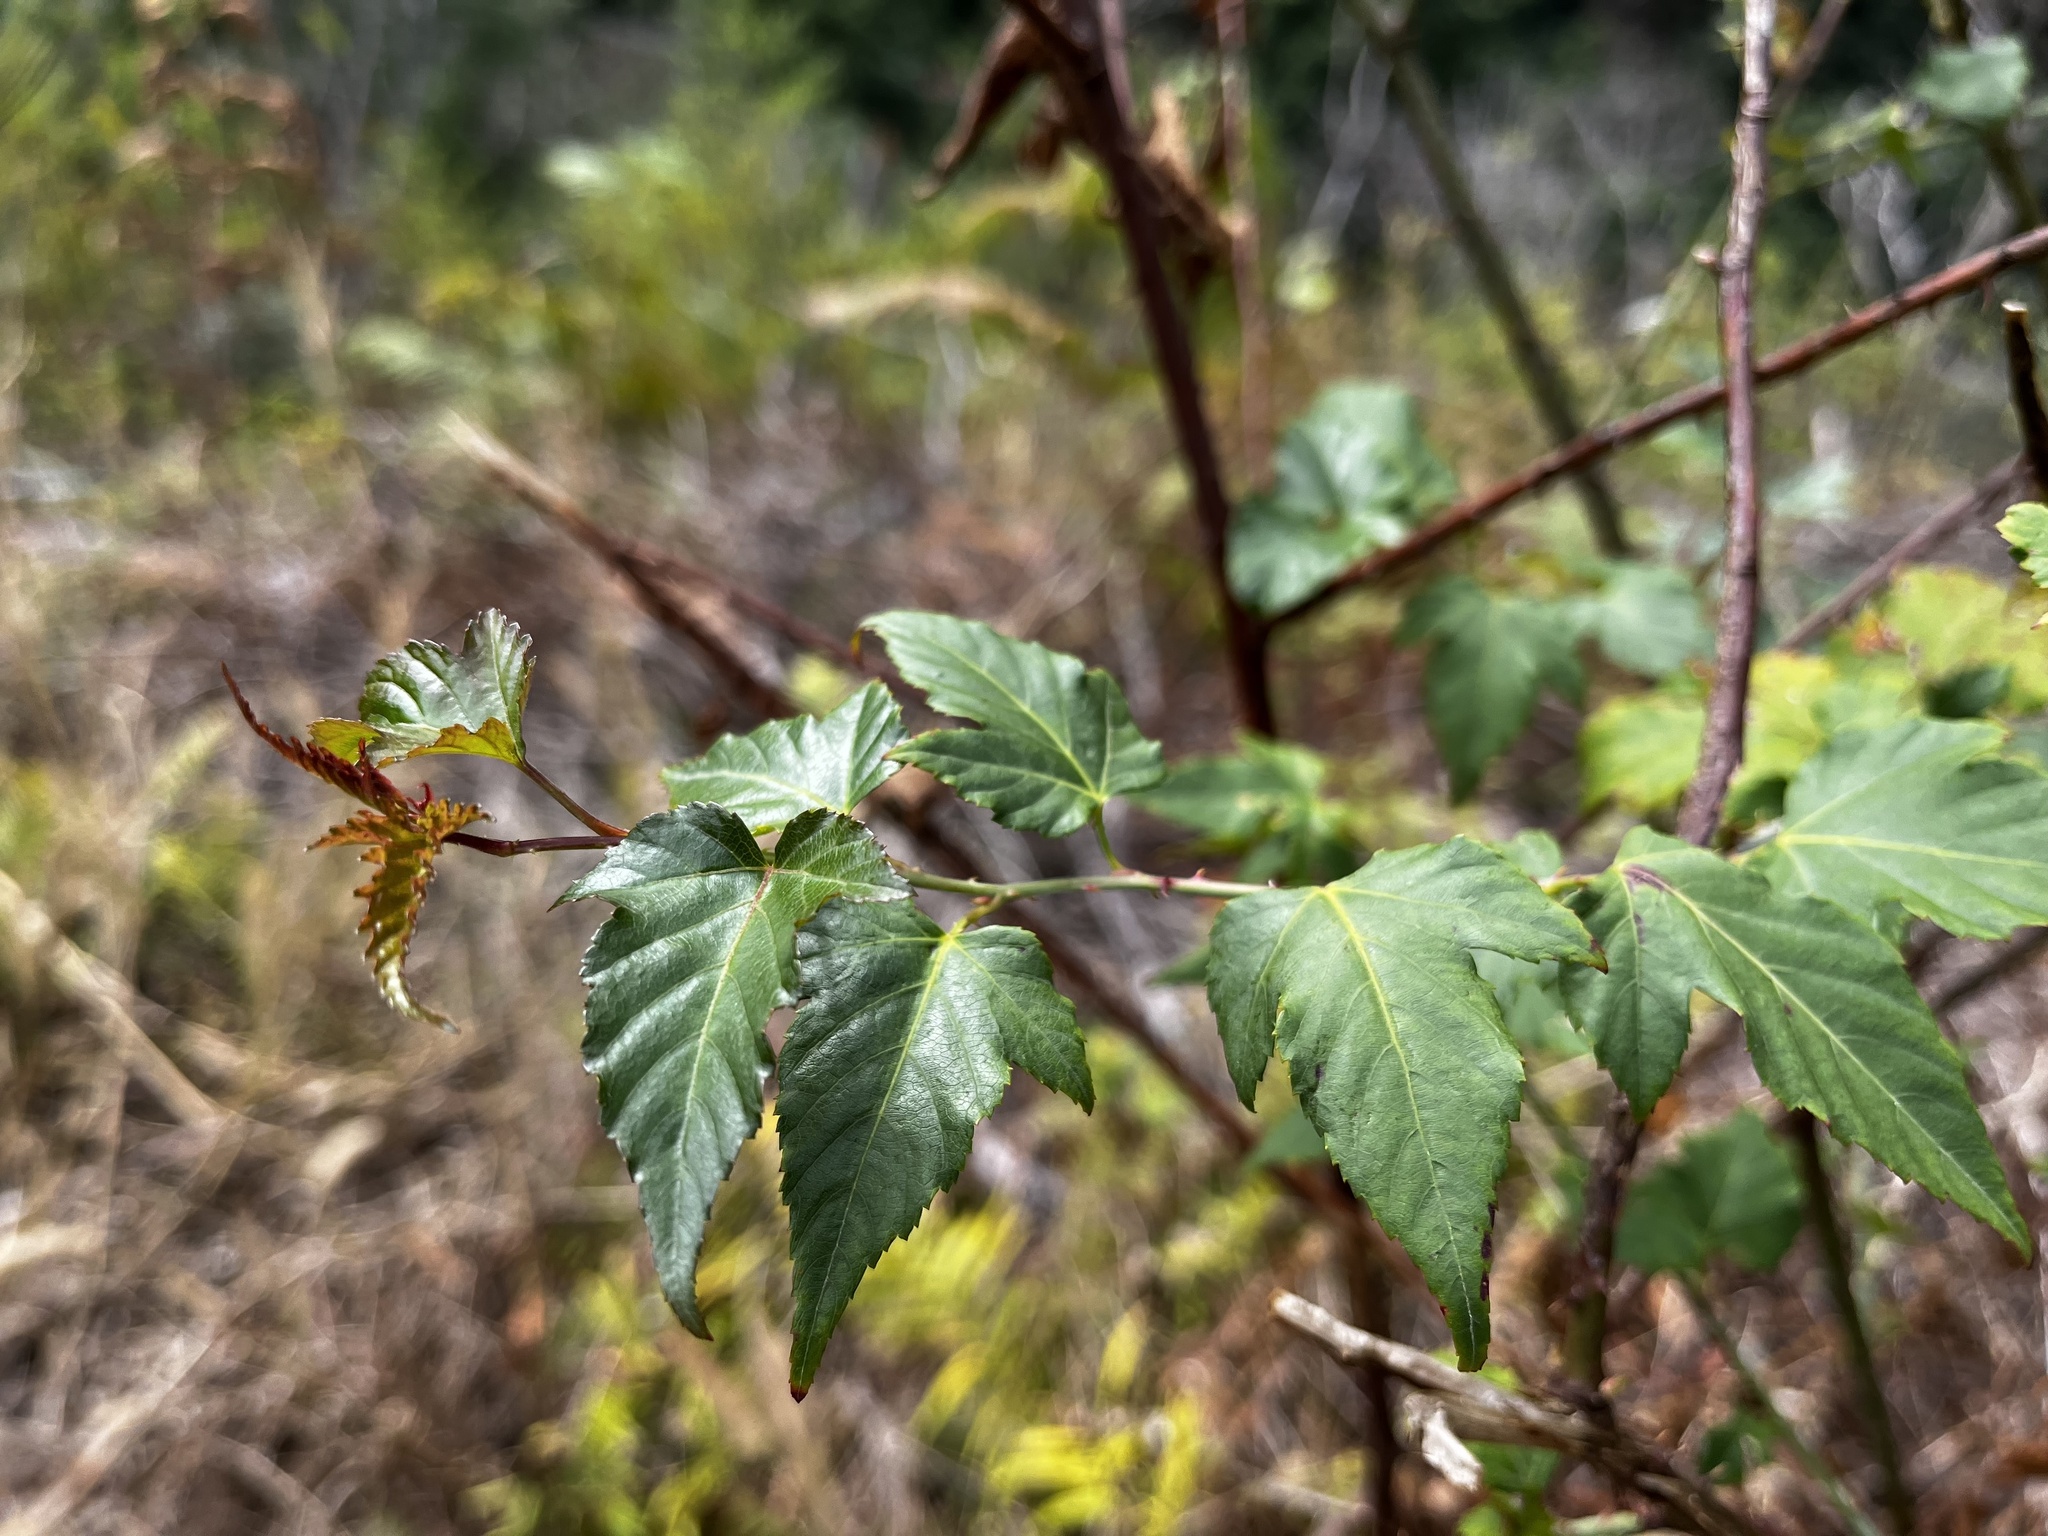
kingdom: Plantae
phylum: Tracheophyta
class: Magnoliopsida
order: Rosales
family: Rosaceae
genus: Rubus
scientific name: Rubus corchorifolius
